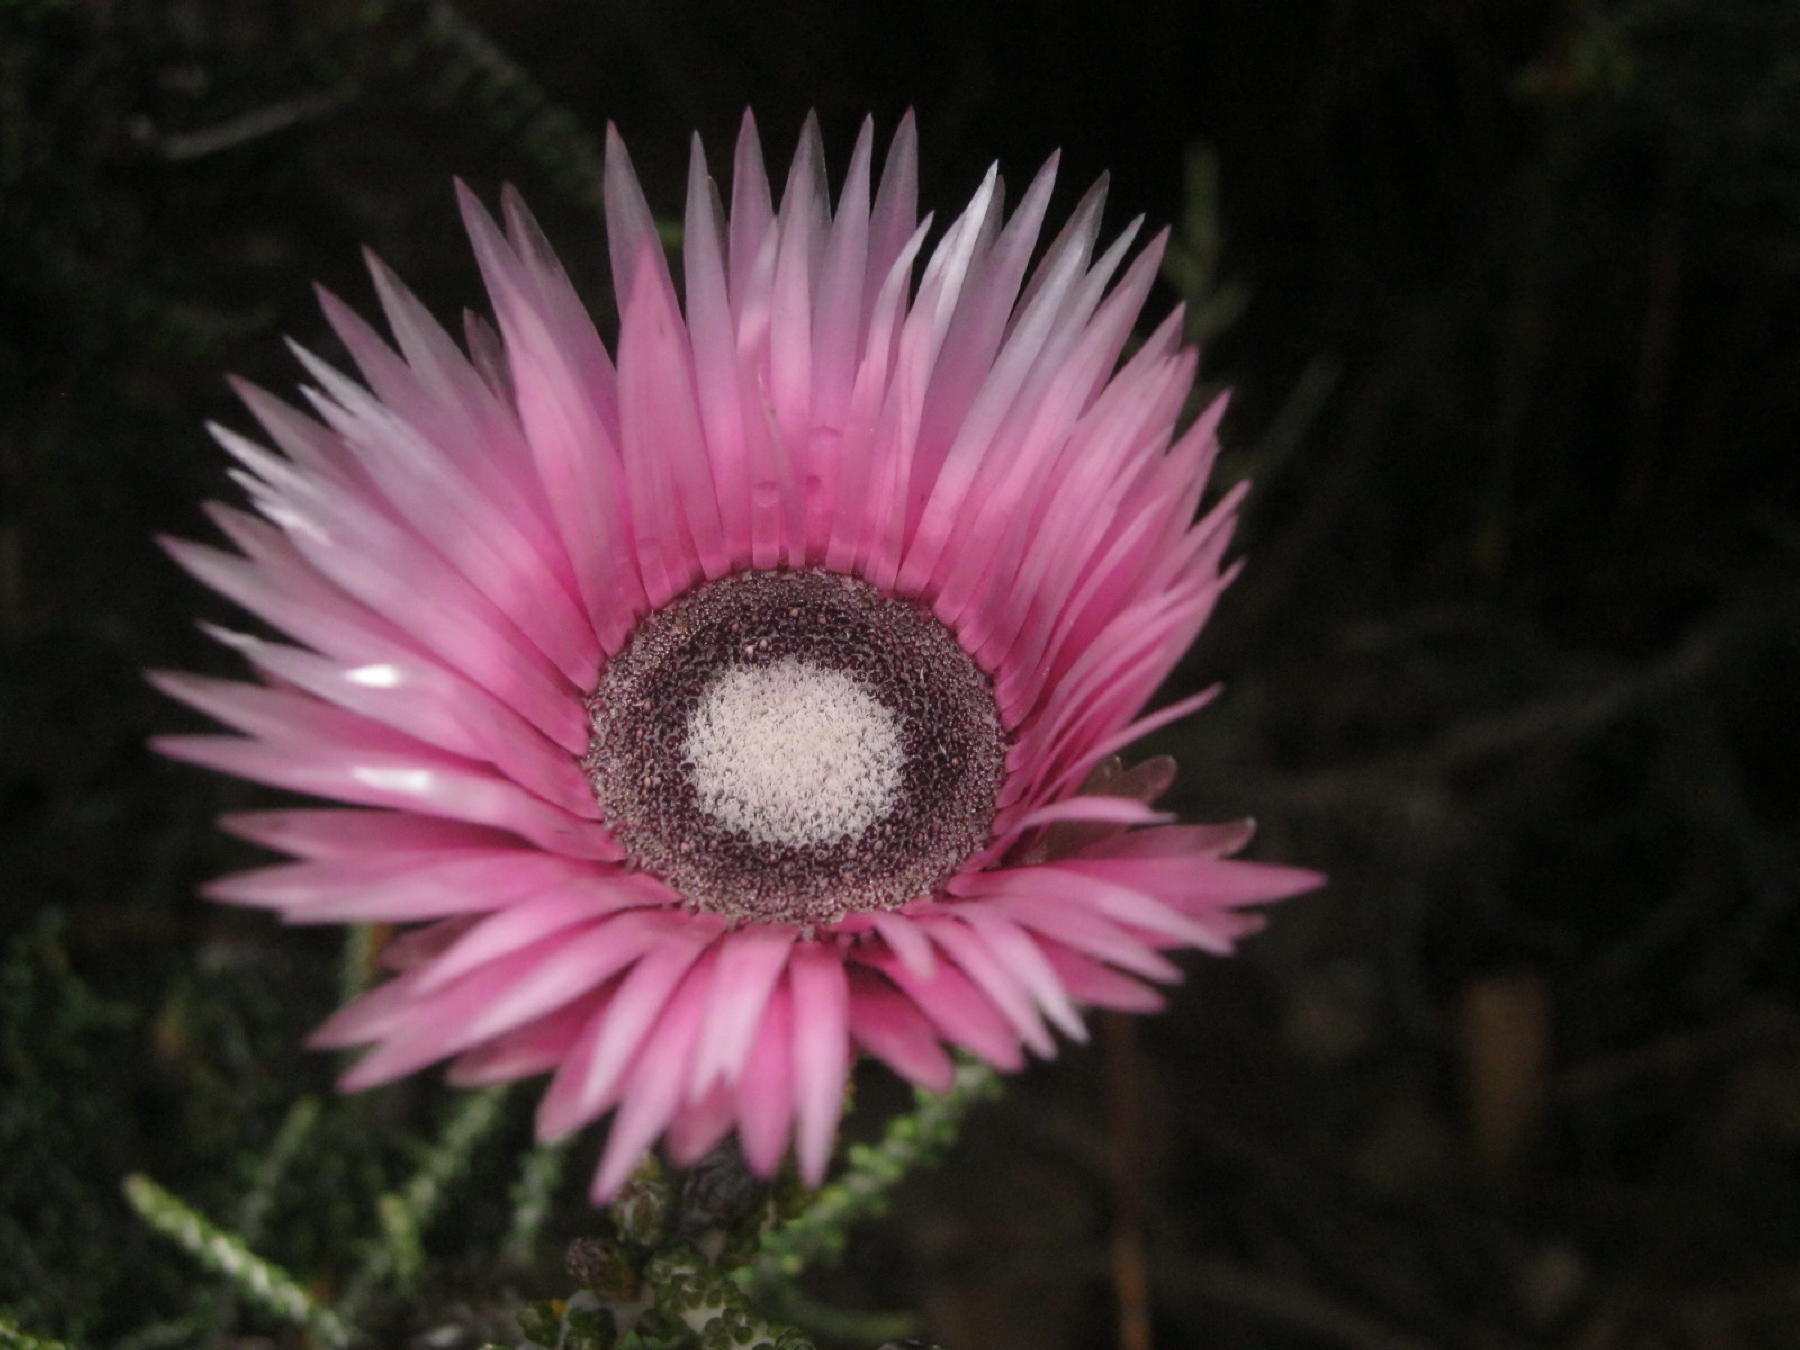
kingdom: Plantae
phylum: Tracheophyta
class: Magnoliopsida
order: Asterales
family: Asteraceae
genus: Phaenocoma
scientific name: Phaenocoma prolifera
